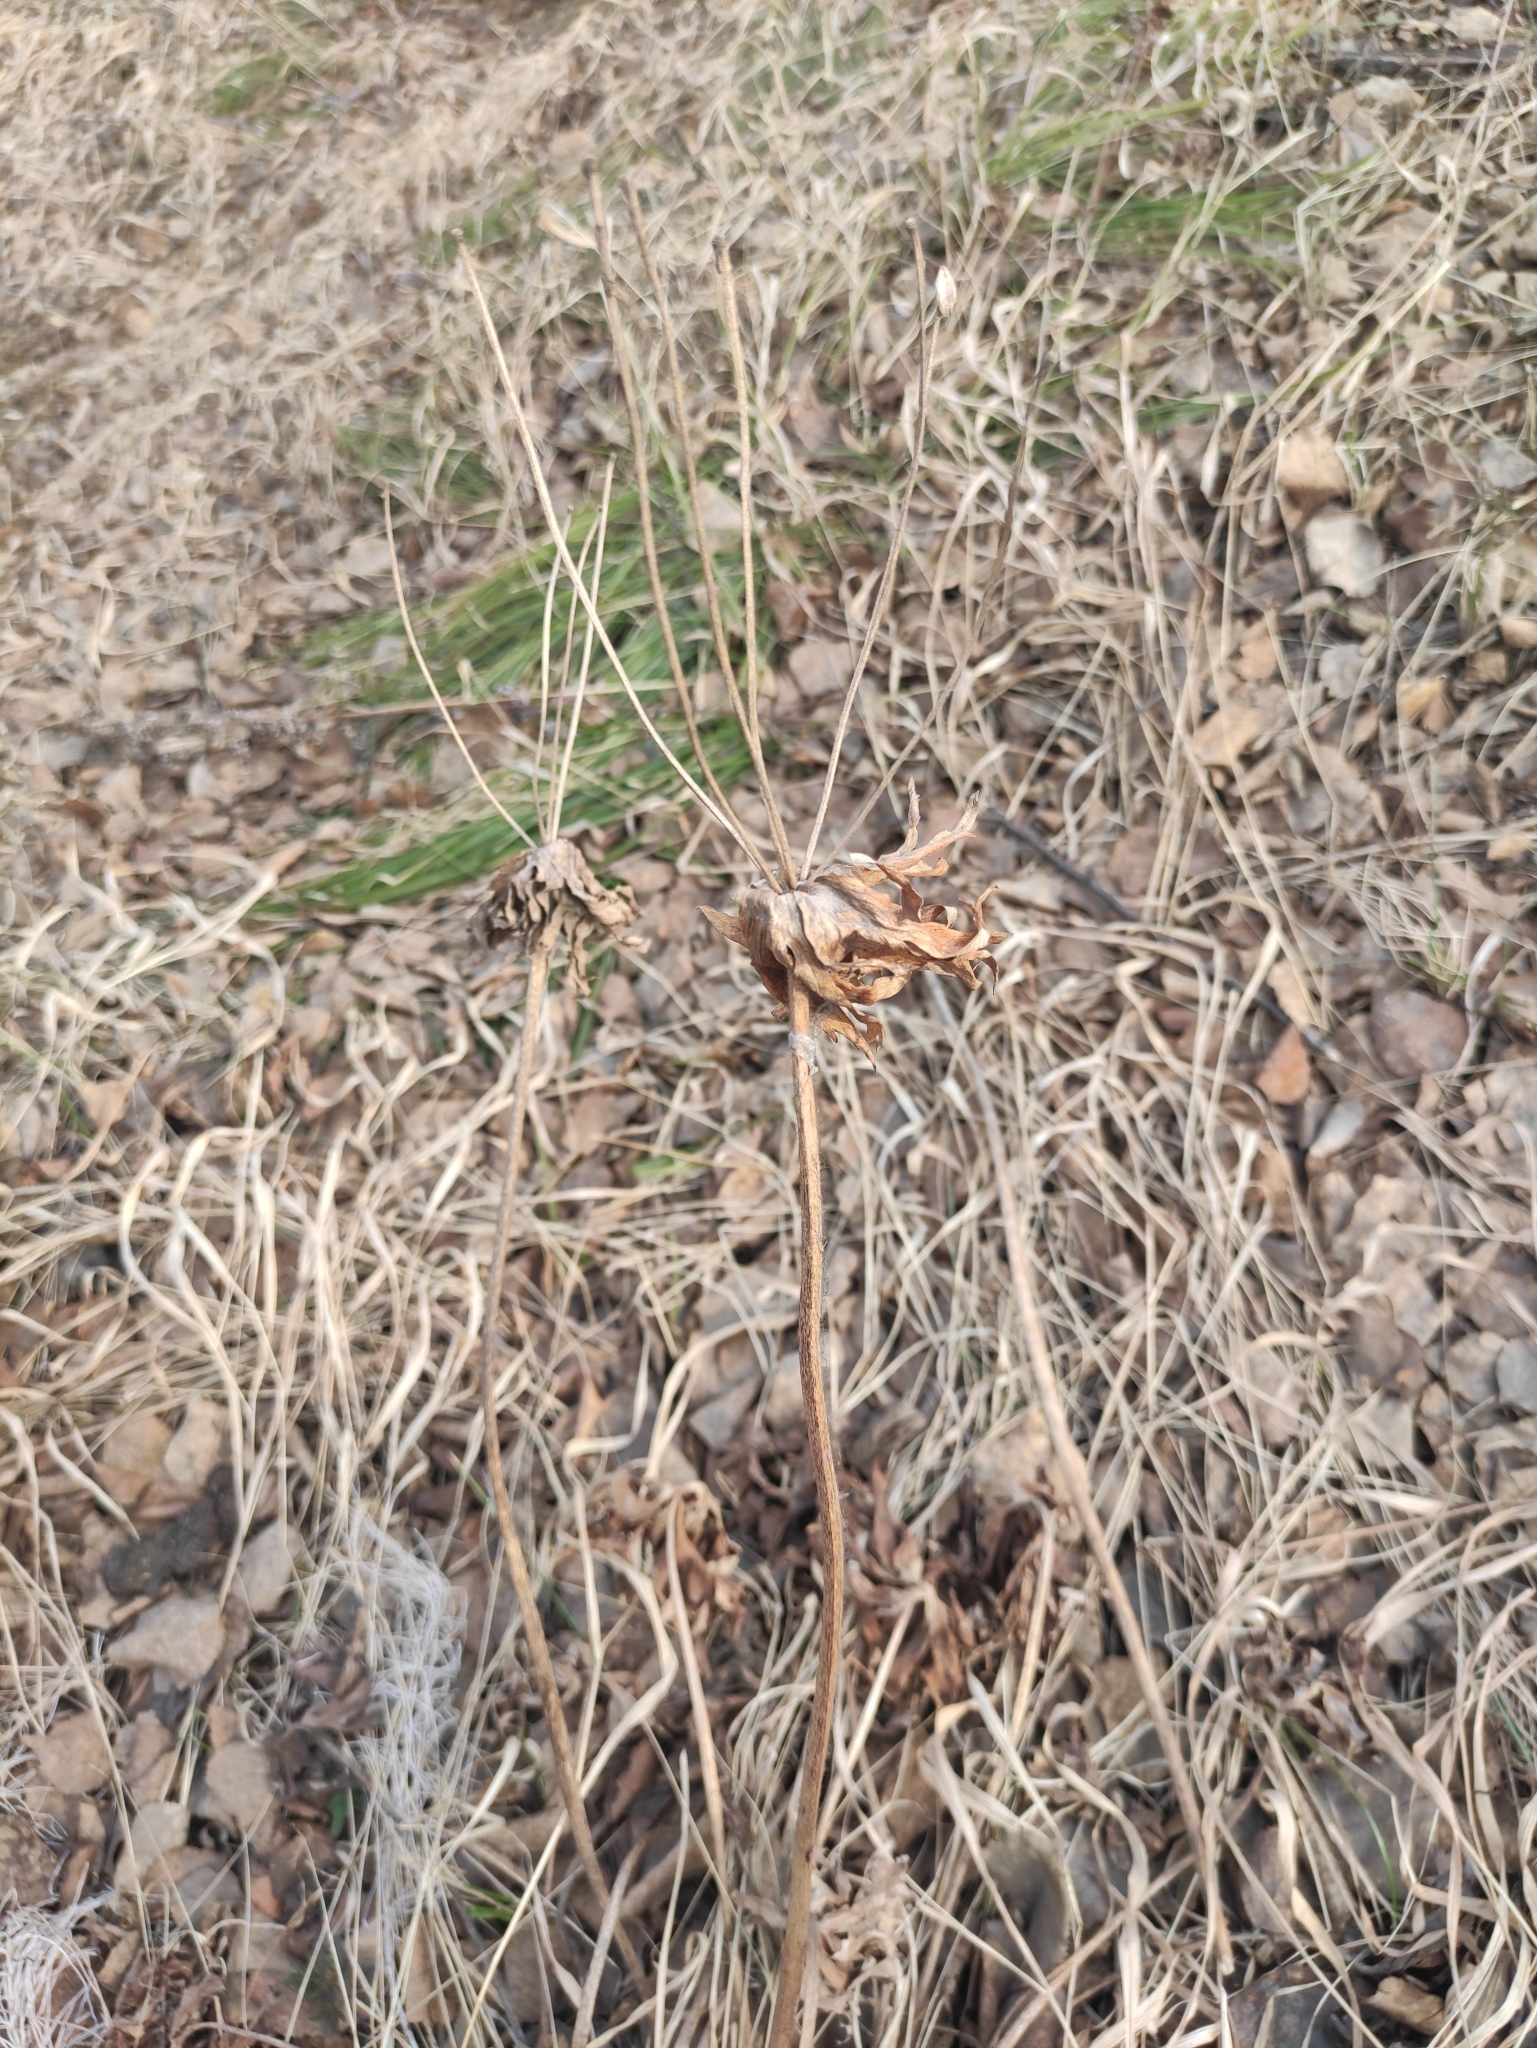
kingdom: Plantae
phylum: Tracheophyta
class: Magnoliopsida
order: Ranunculales
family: Ranunculaceae
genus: Anemonastrum
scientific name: Anemonastrum narcissiflorum
